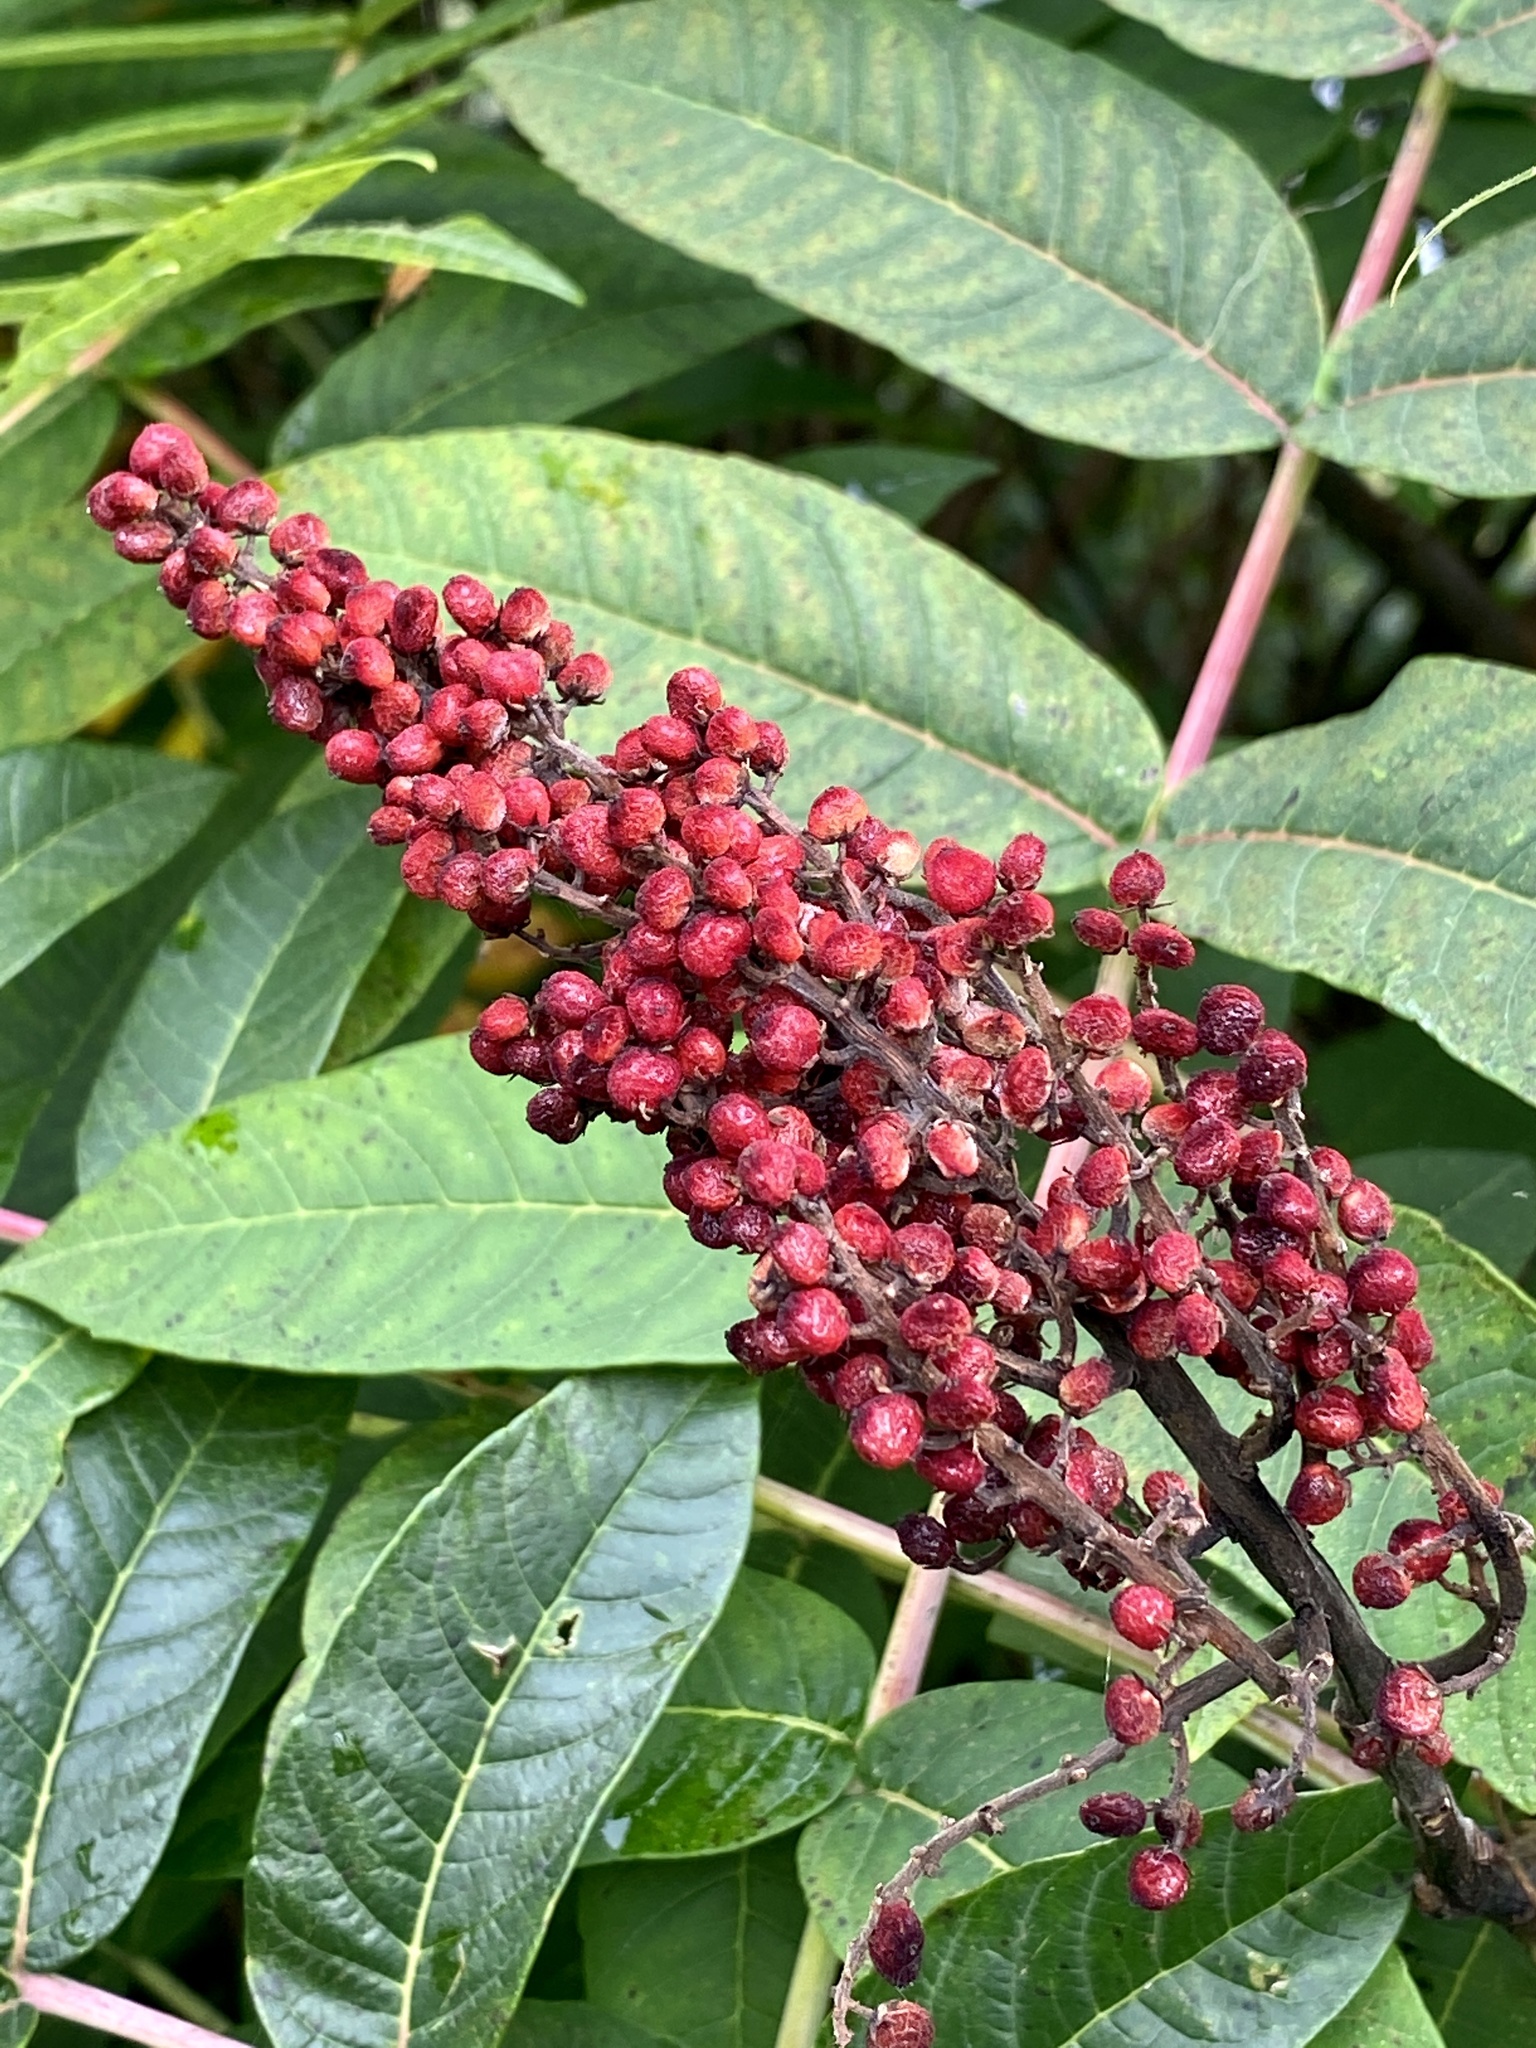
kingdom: Plantae
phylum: Tracheophyta
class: Magnoliopsida
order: Sapindales
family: Anacardiaceae
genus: Rhus
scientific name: Rhus glabra
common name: Scarlet sumac
